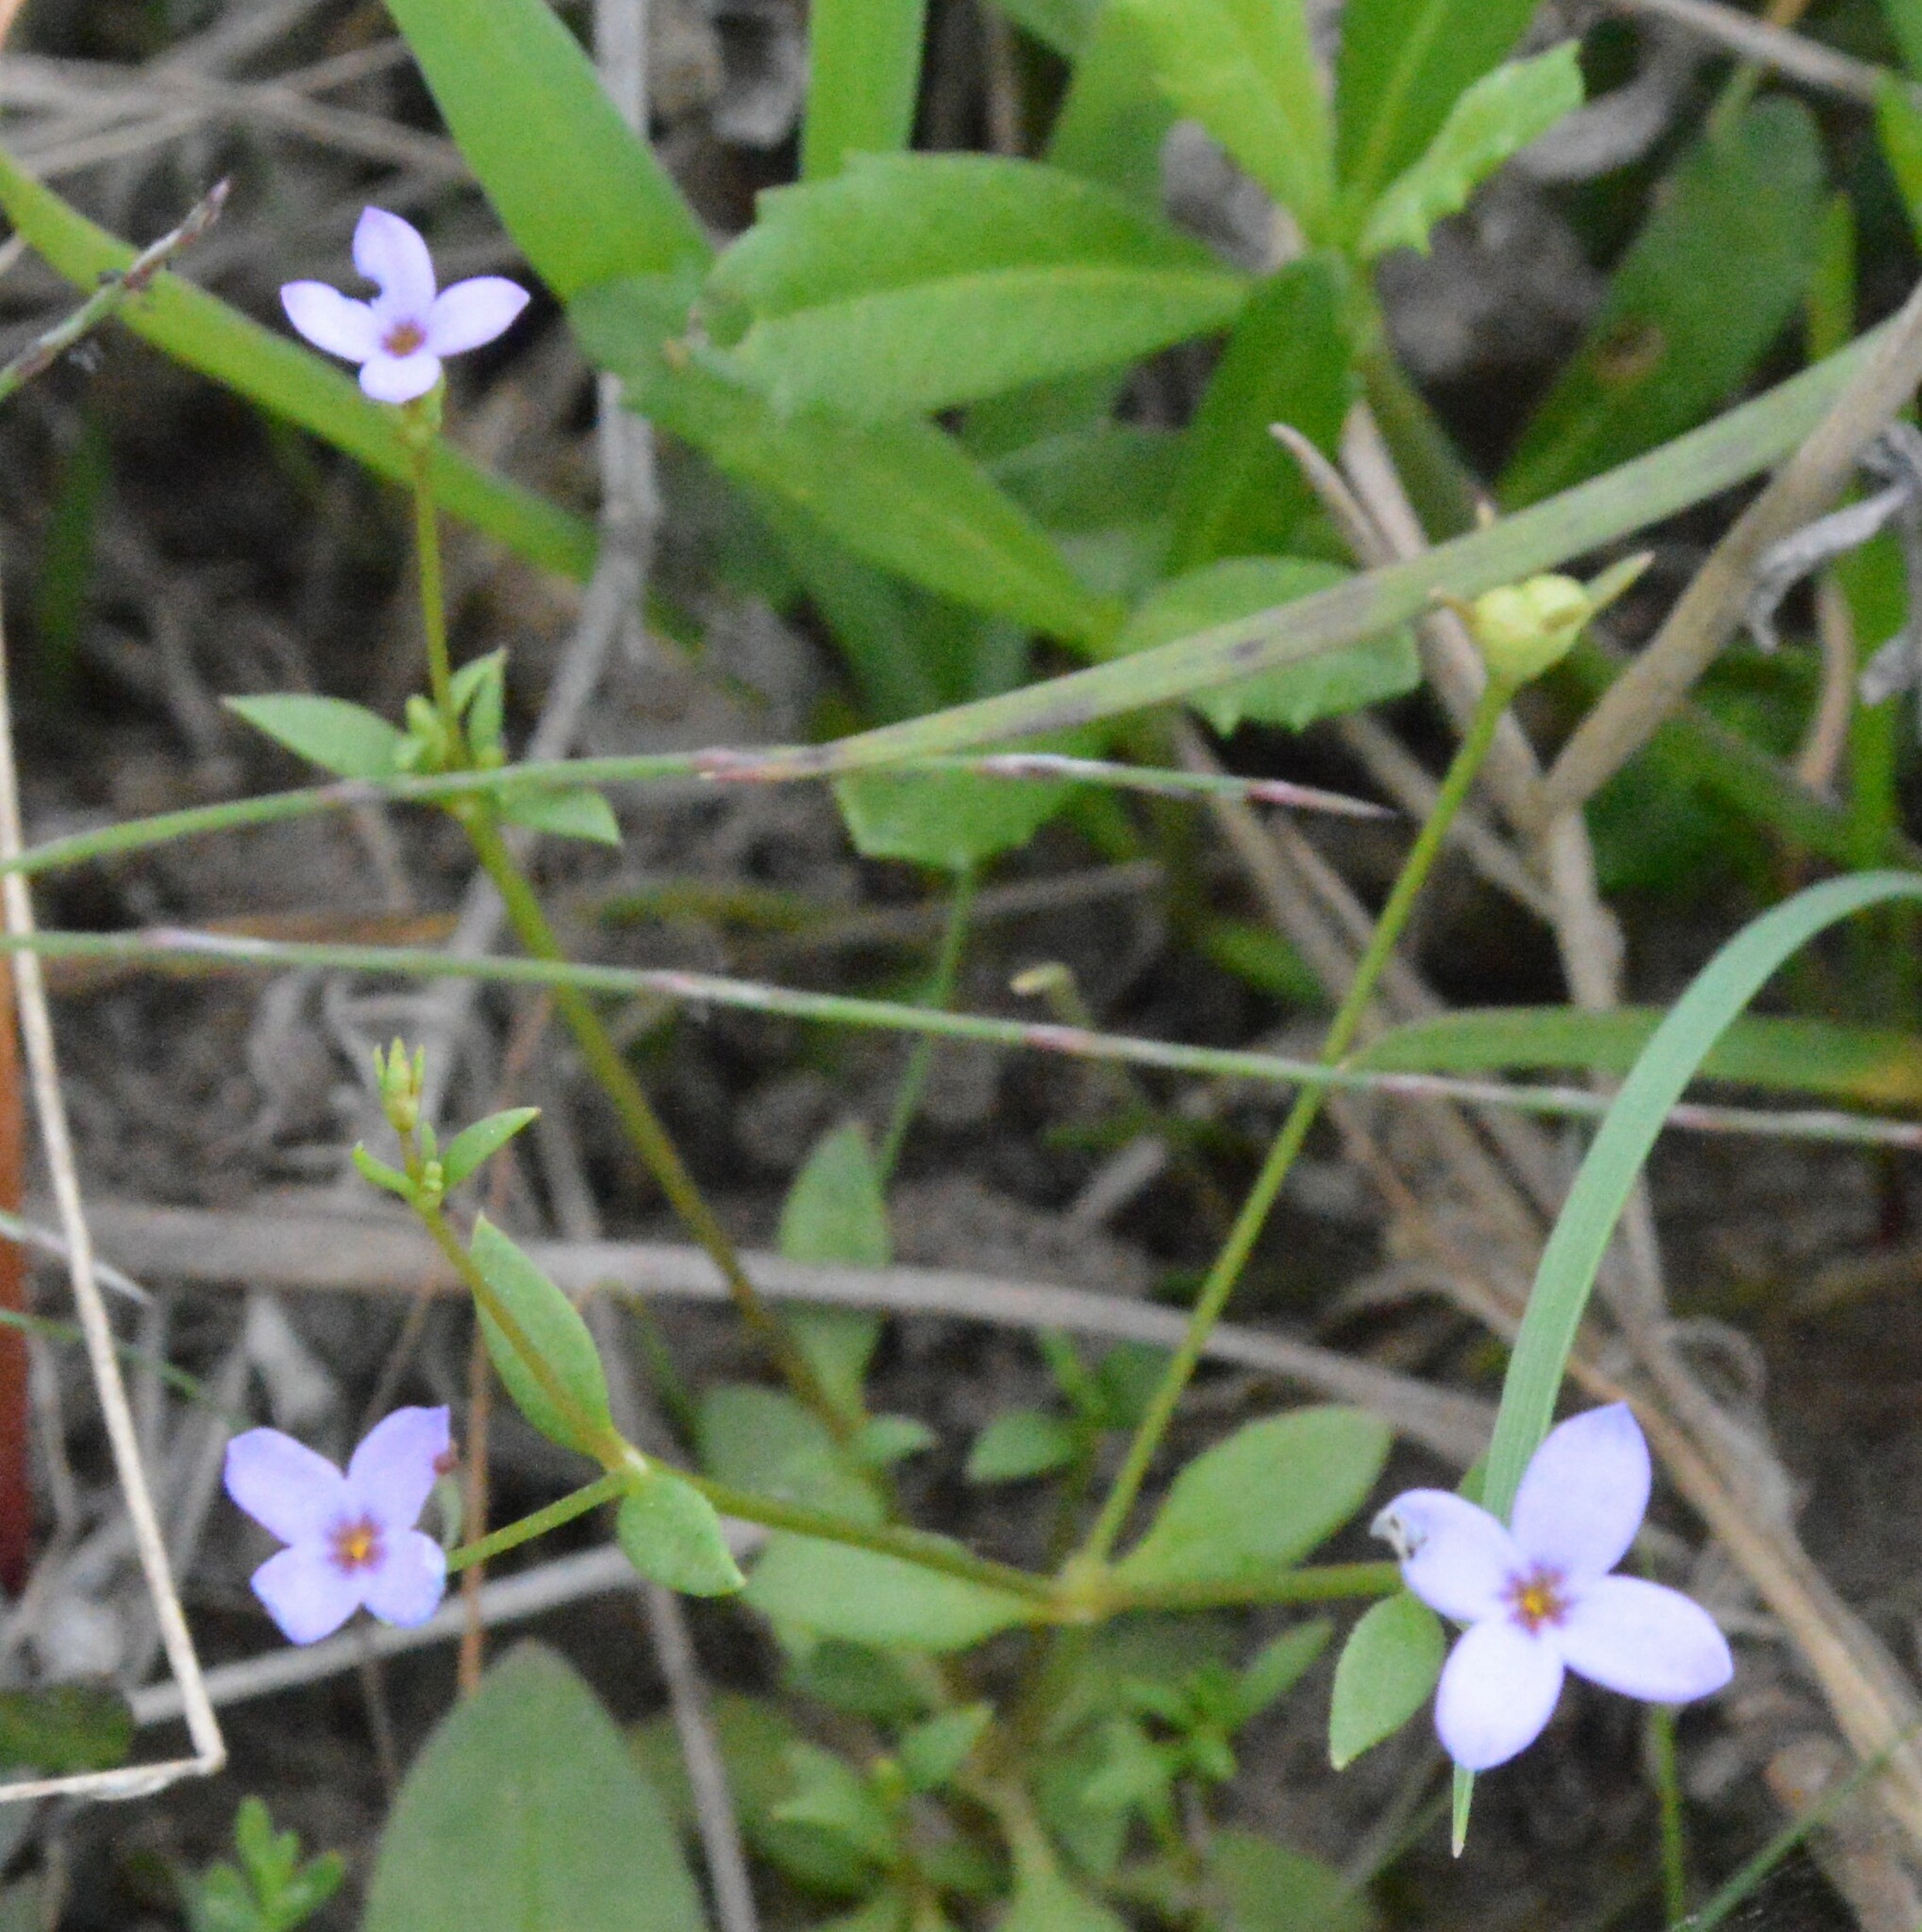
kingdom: Plantae
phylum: Tracheophyta
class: Magnoliopsida
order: Gentianales
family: Rubiaceae
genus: Houstonia
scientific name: Houstonia pusilla
